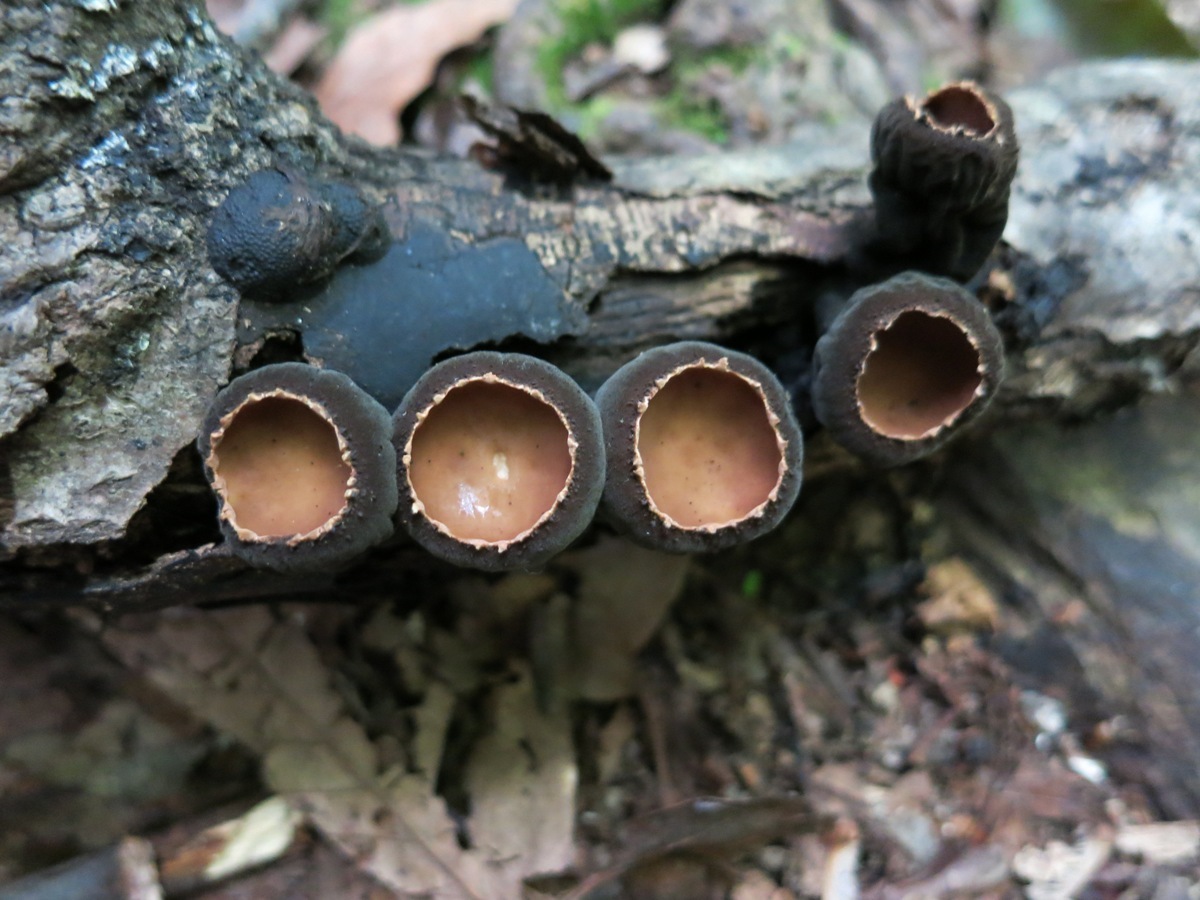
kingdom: Fungi
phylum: Ascomycota
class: Pezizomycetes
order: Pezizales
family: Sarcosomataceae
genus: Galiella
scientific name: Galiella rufa
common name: Hairy rubber cup
